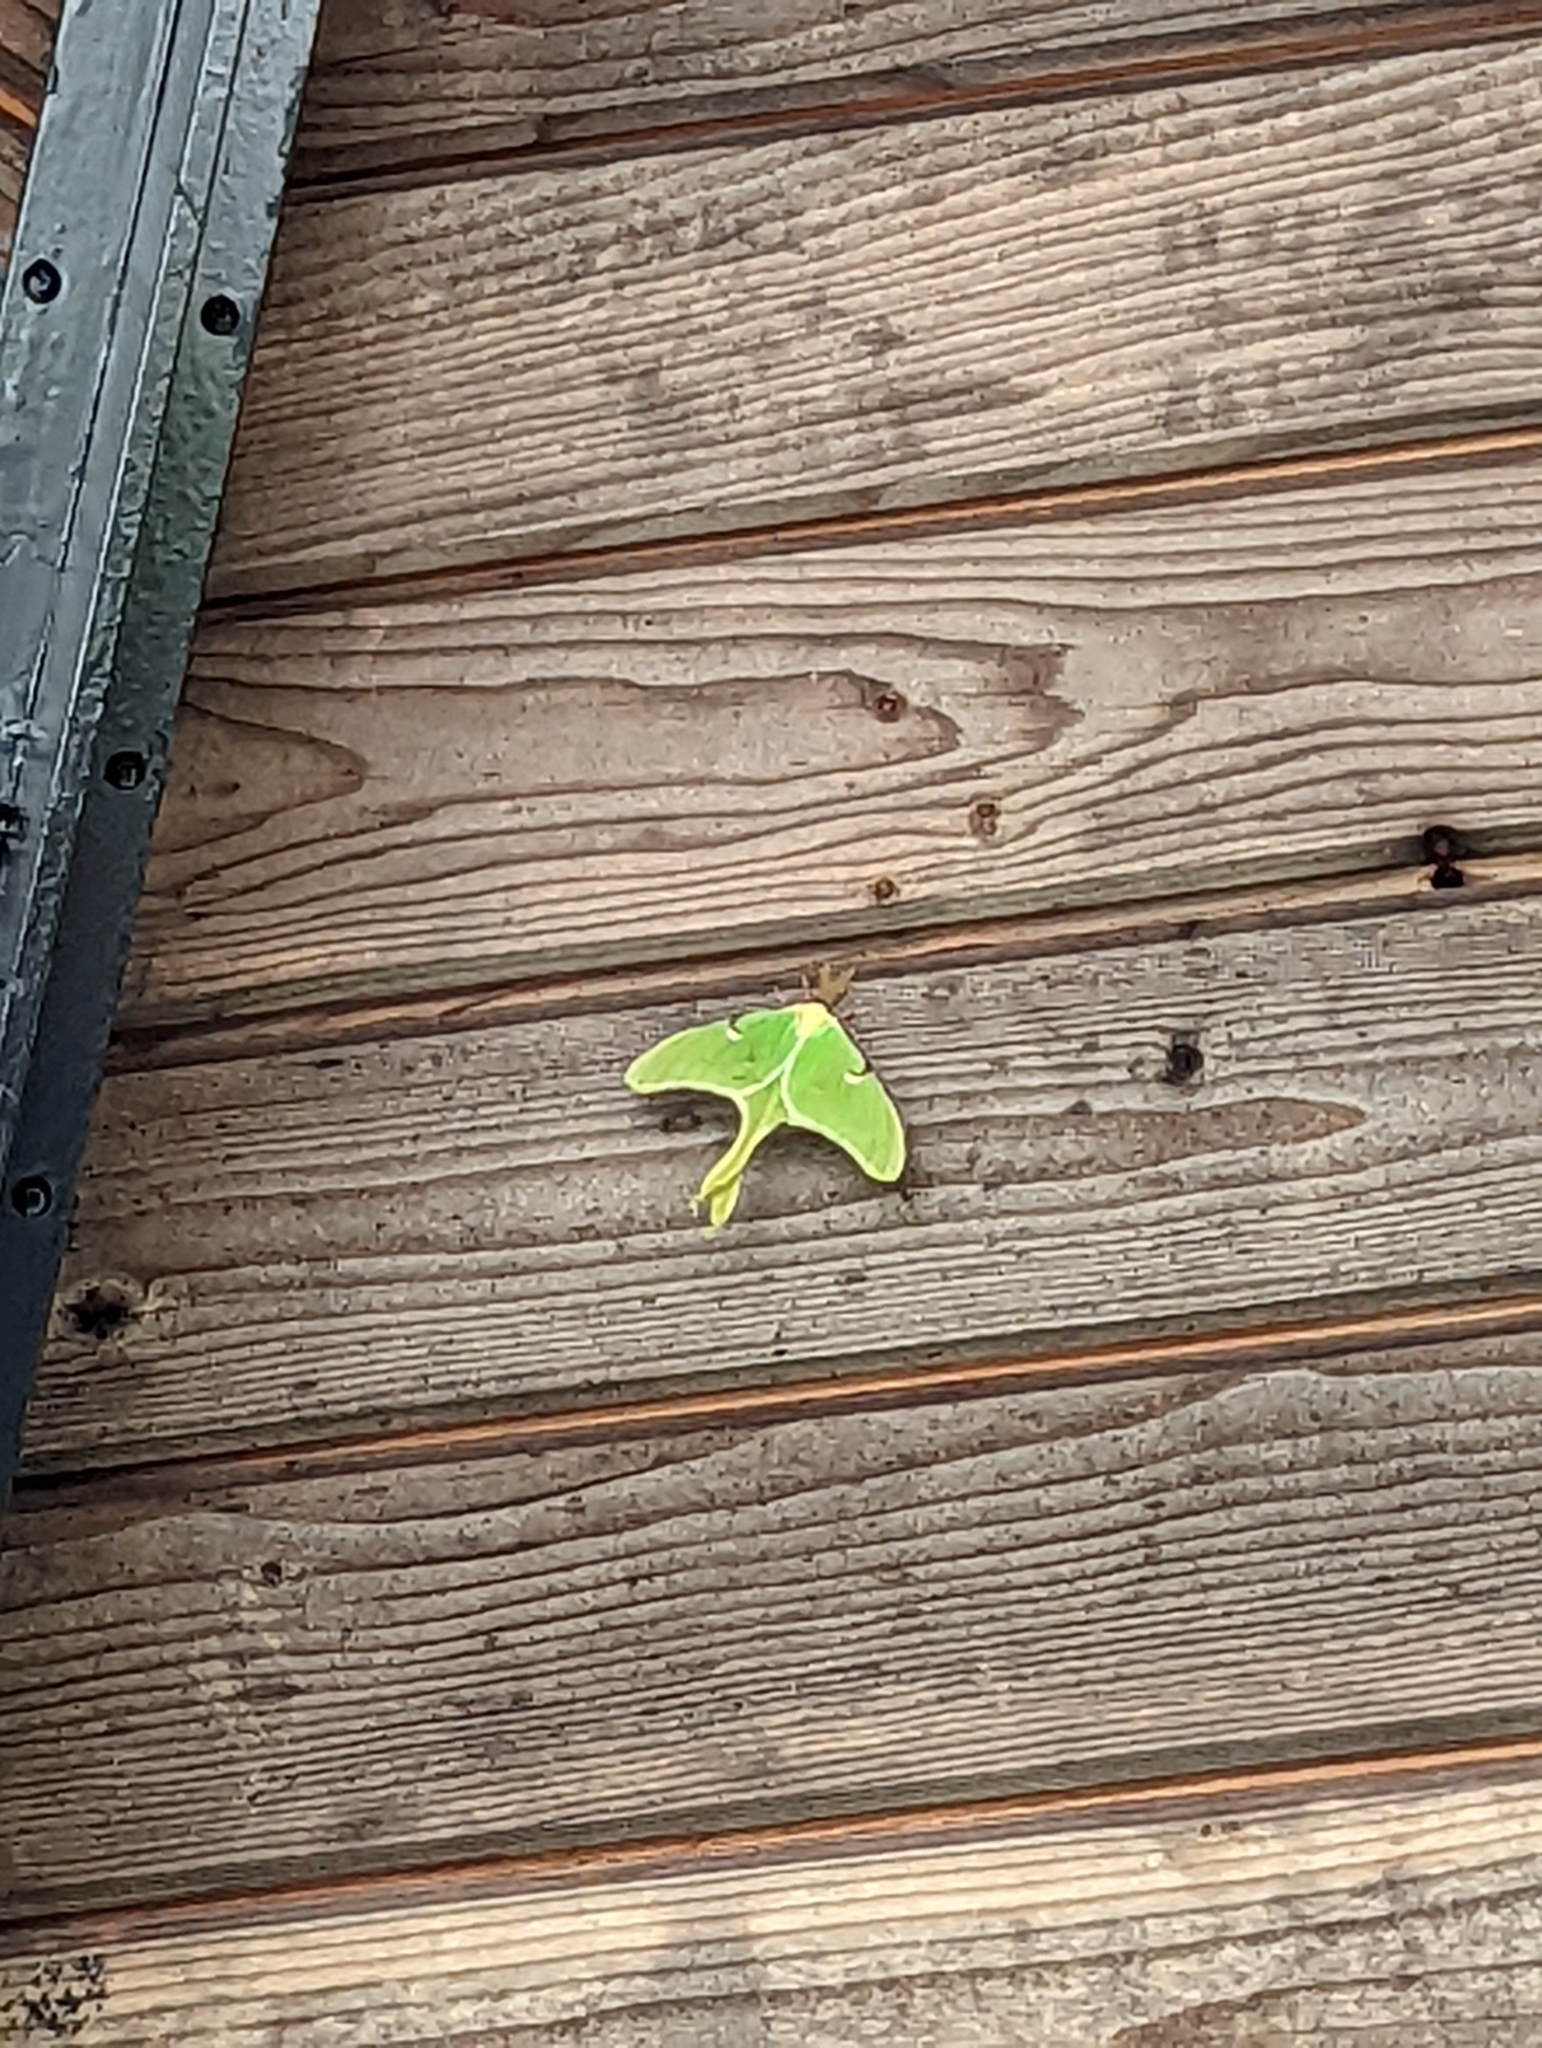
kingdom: Animalia
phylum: Arthropoda
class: Insecta
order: Lepidoptera
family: Saturniidae
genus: Actias
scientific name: Actias luna
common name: Luna moth
